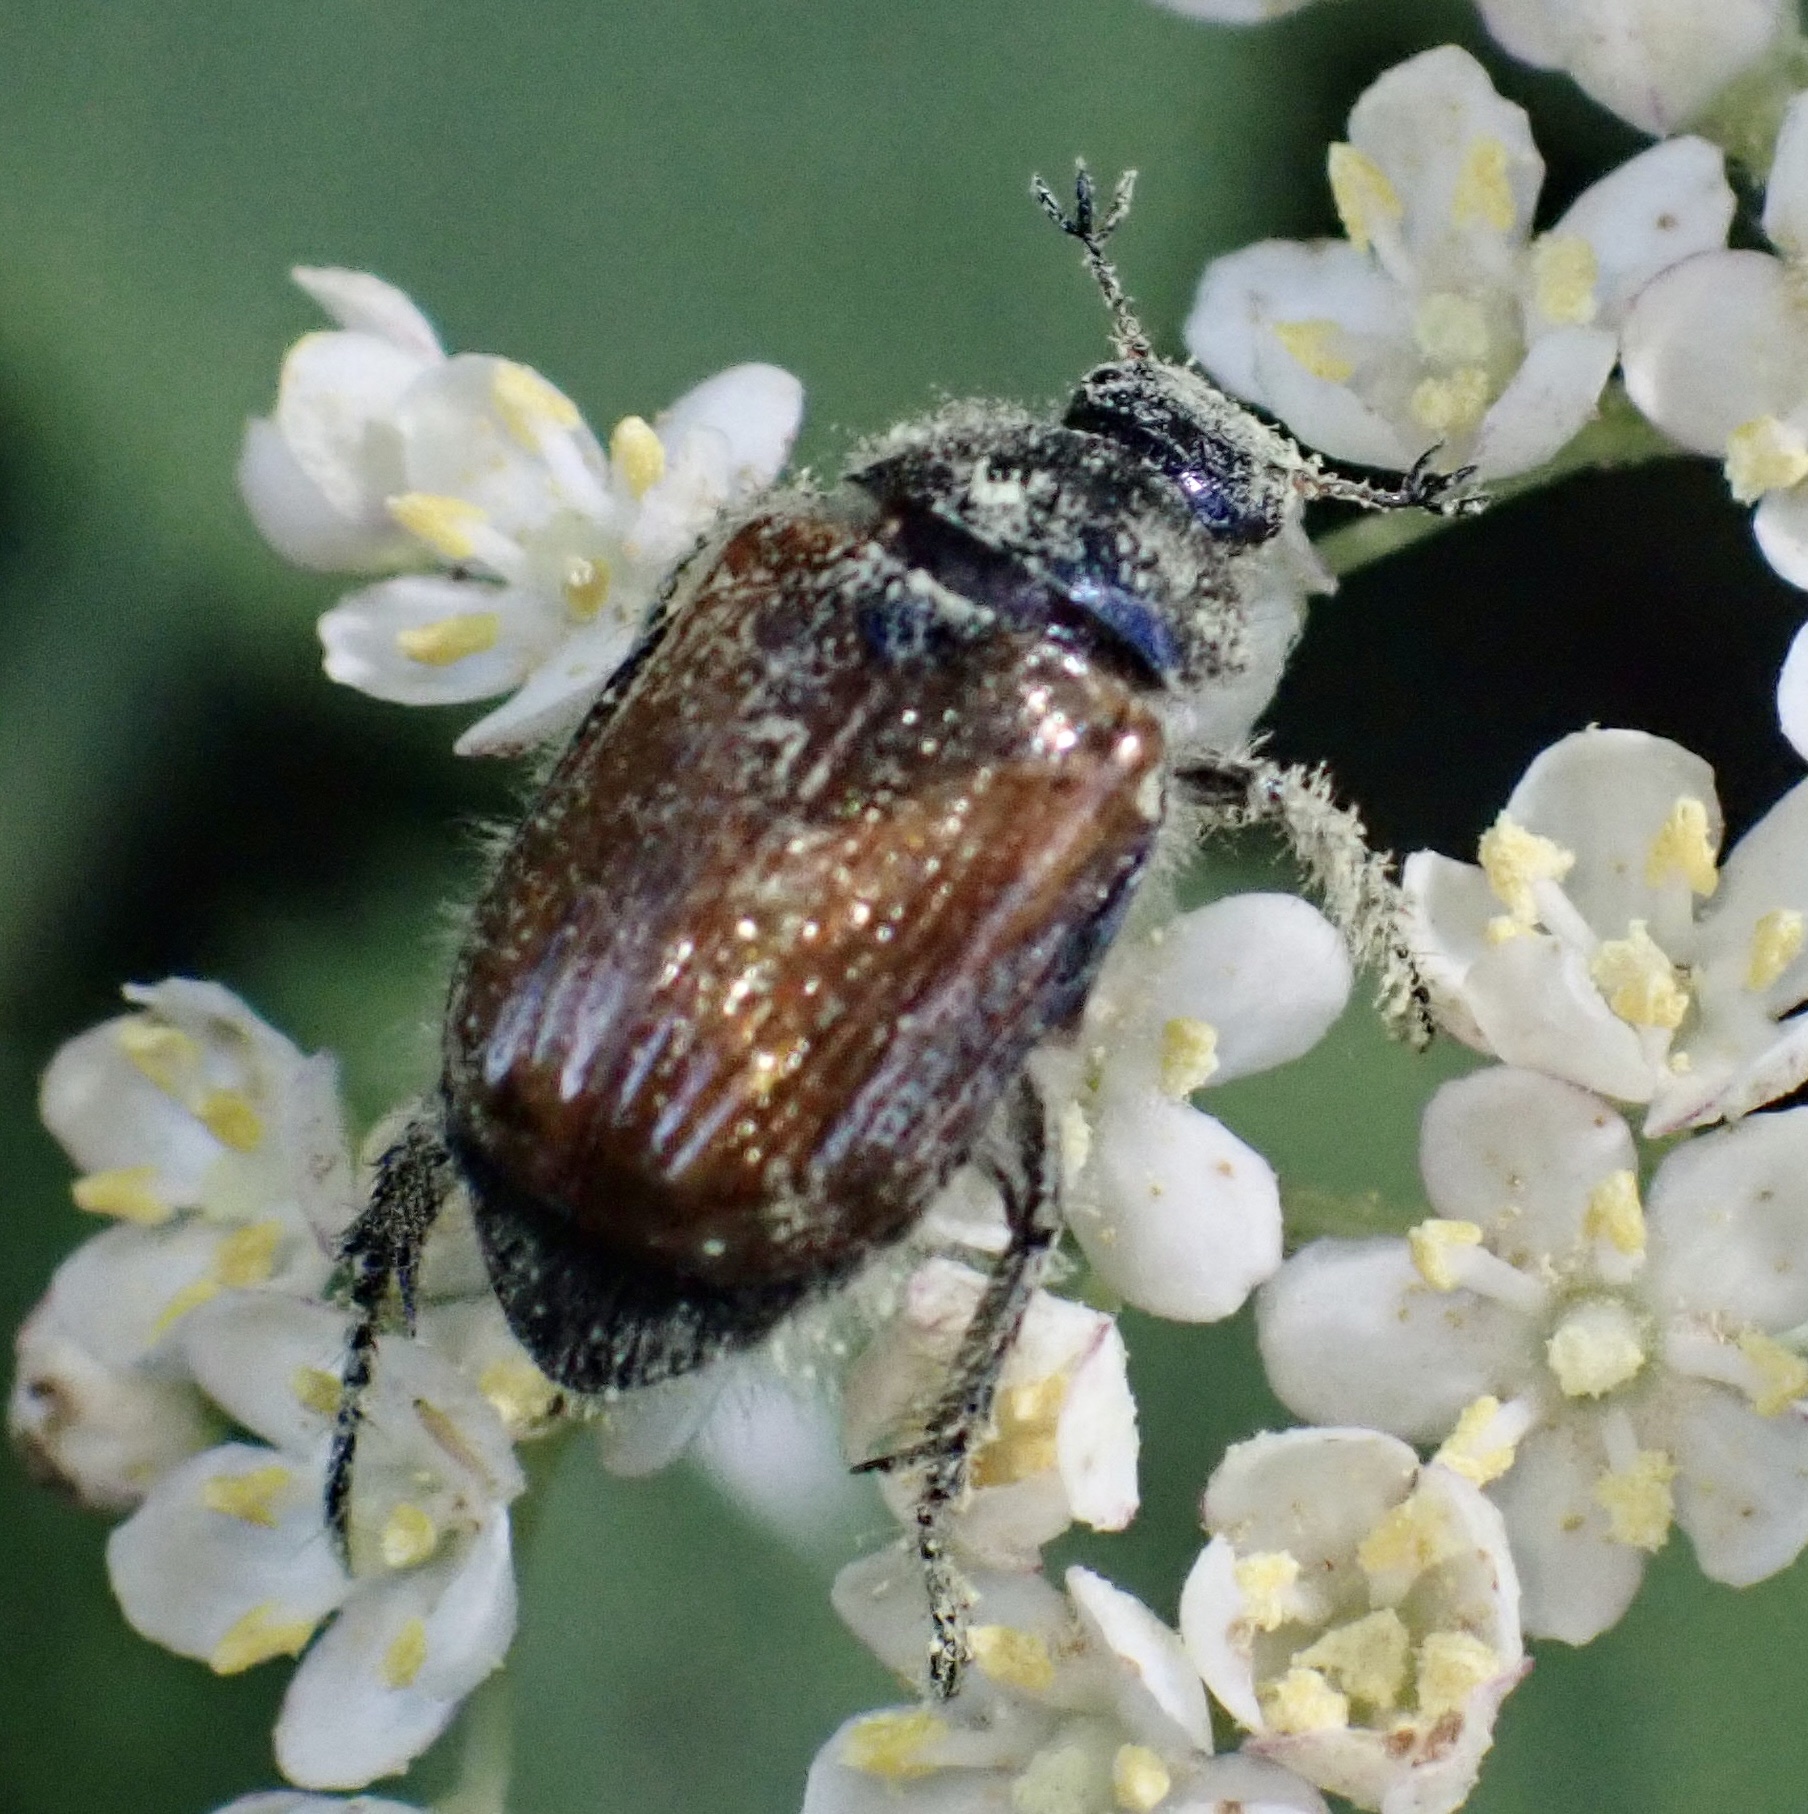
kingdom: Animalia
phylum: Arthropoda
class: Insecta
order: Coleoptera
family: Scarabaeidae
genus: Phyllopertha
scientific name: Phyllopertha horticola
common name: Garden chafer
